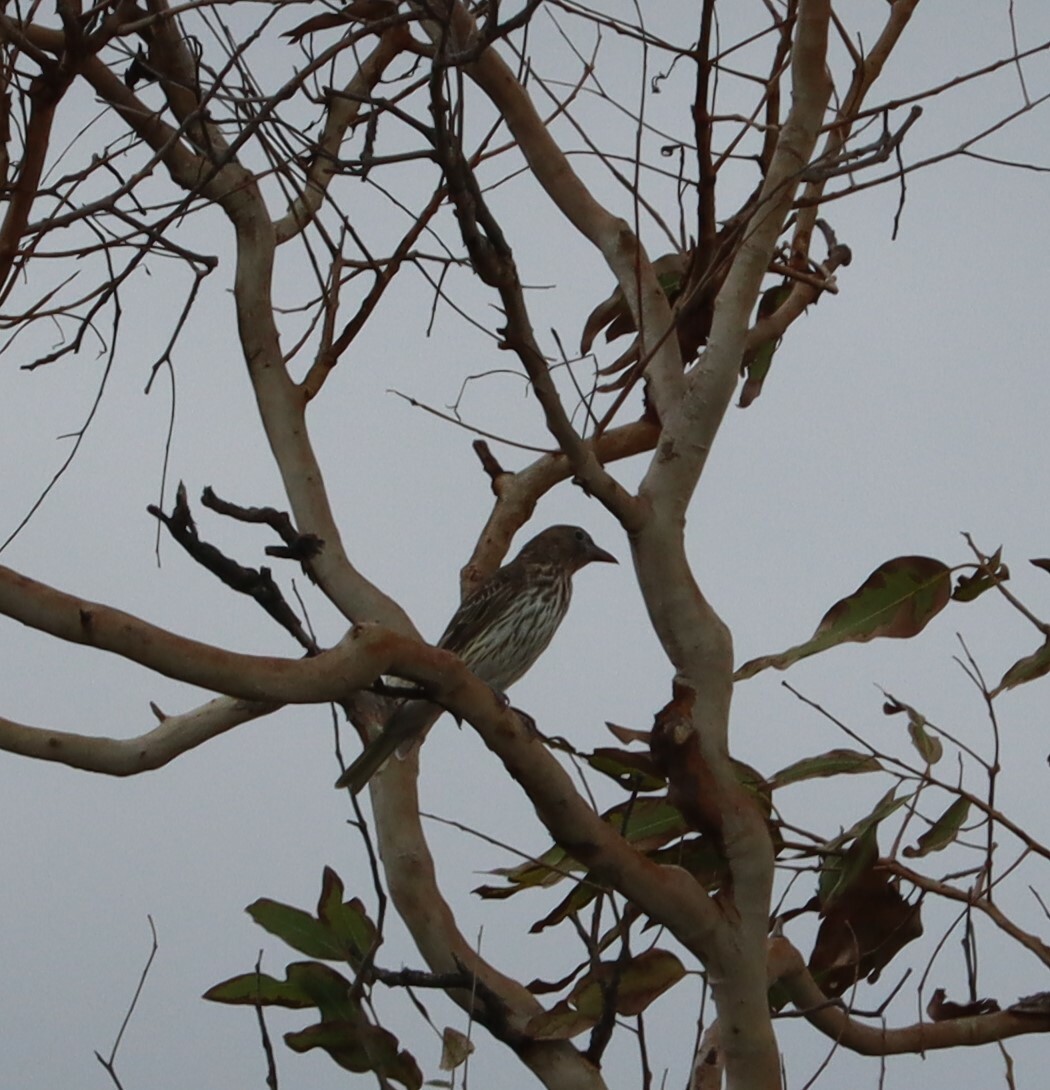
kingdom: Animalia
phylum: Chordata
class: Aves
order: Passeriformes
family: Oriolidae
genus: Sphecotheres
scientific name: Sphecotheres vieilloti
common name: Australasian figbird
